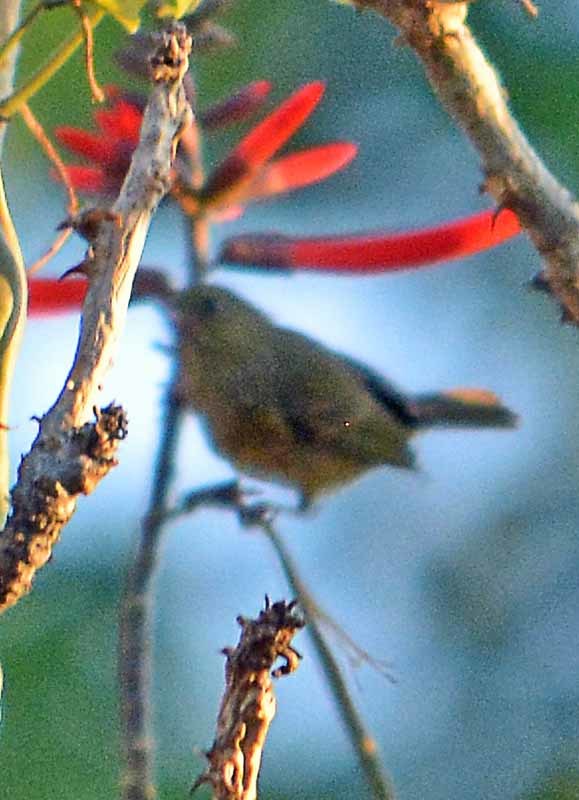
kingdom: Animalia
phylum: Chordata
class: Aves
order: Passeriformes
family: Thraupidae
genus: Diglossa
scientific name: Diglossa baritula
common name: Cinnamon-bellied flowerpiercer
